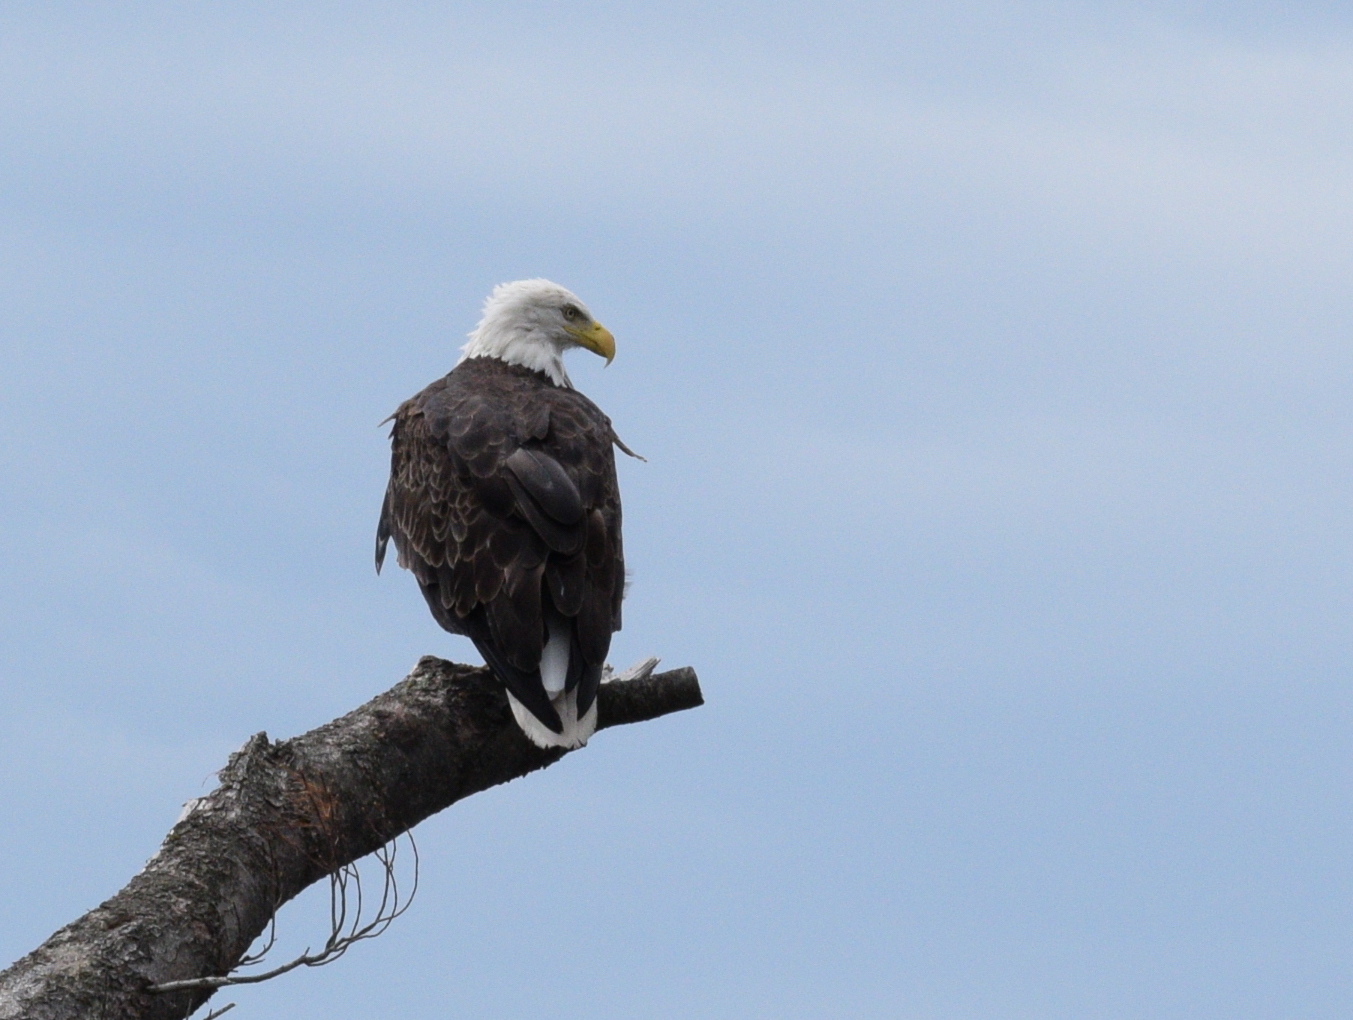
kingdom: Animalia
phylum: Chordata
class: Aves
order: Accipitriformes
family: Accipitridae
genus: Haliaeetus
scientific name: Haliaeetus leucocephalus
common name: Bald eagle
